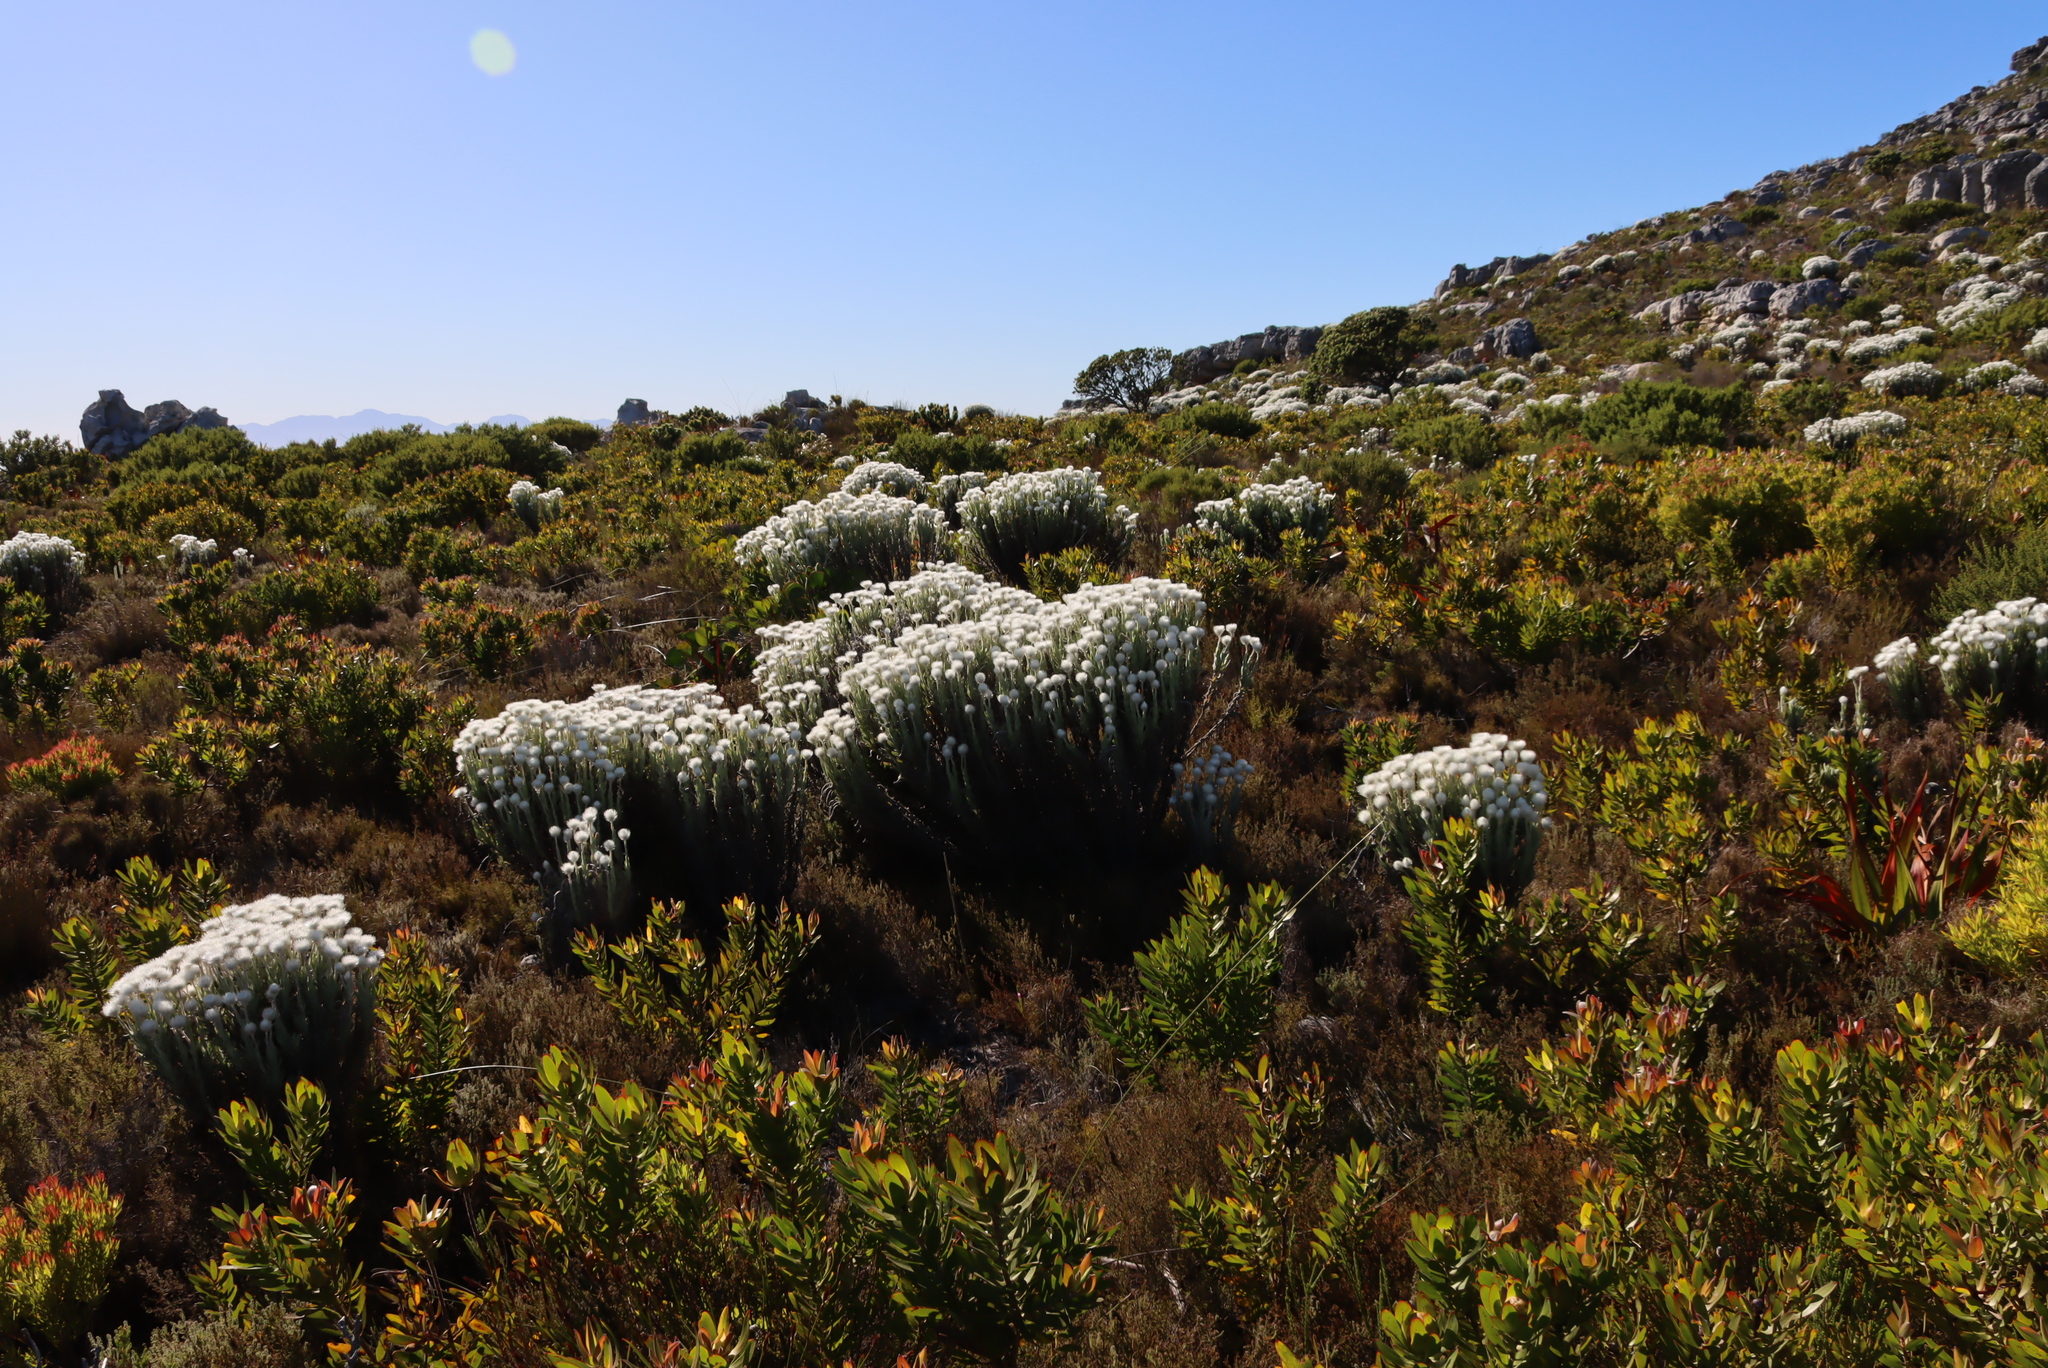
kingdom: Plantae
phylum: Tracheophyta
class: Magnoliopsida
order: Asterales
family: Asteraceae
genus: Syncarpha
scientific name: Syncarpha vestita
